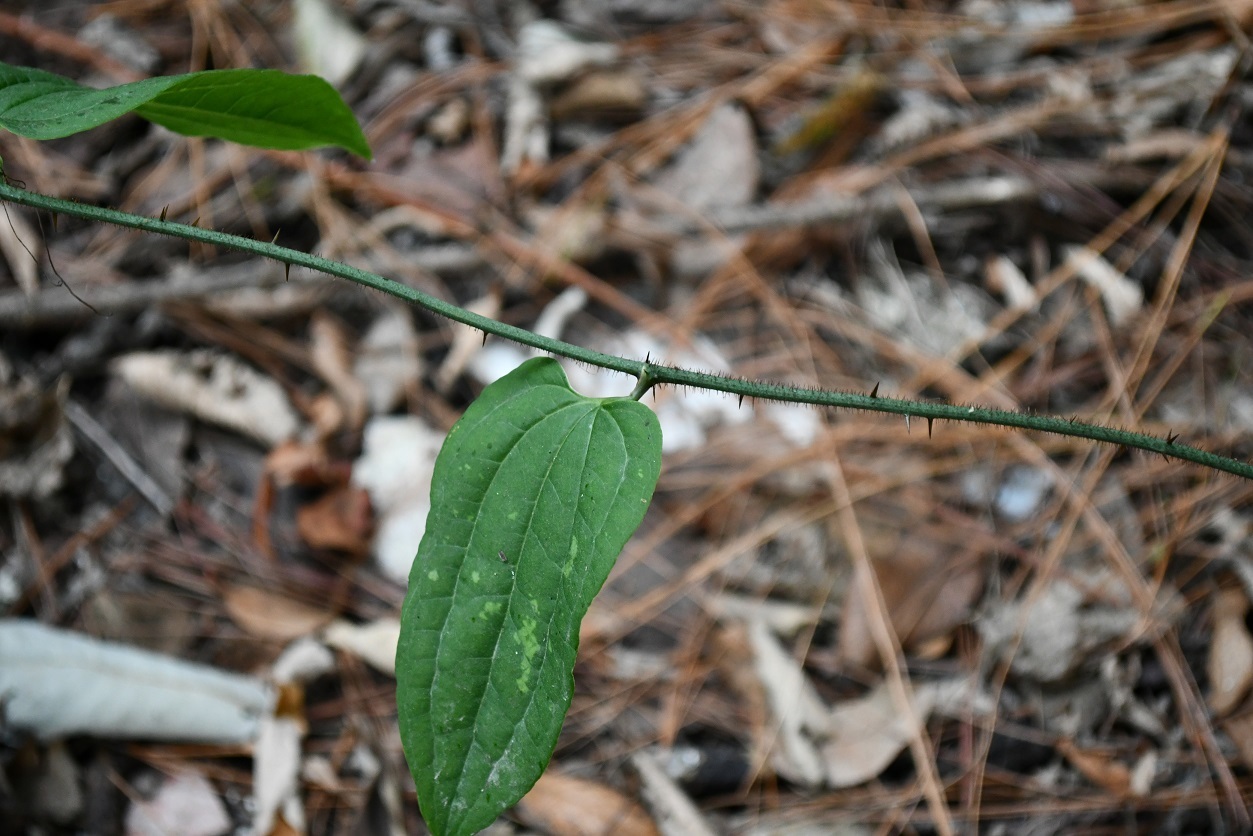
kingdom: Plantae
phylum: Tracheophyta
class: Liliopsida
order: Liliales
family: Smilacaceae
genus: Smilax
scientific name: Smilax moranensis
